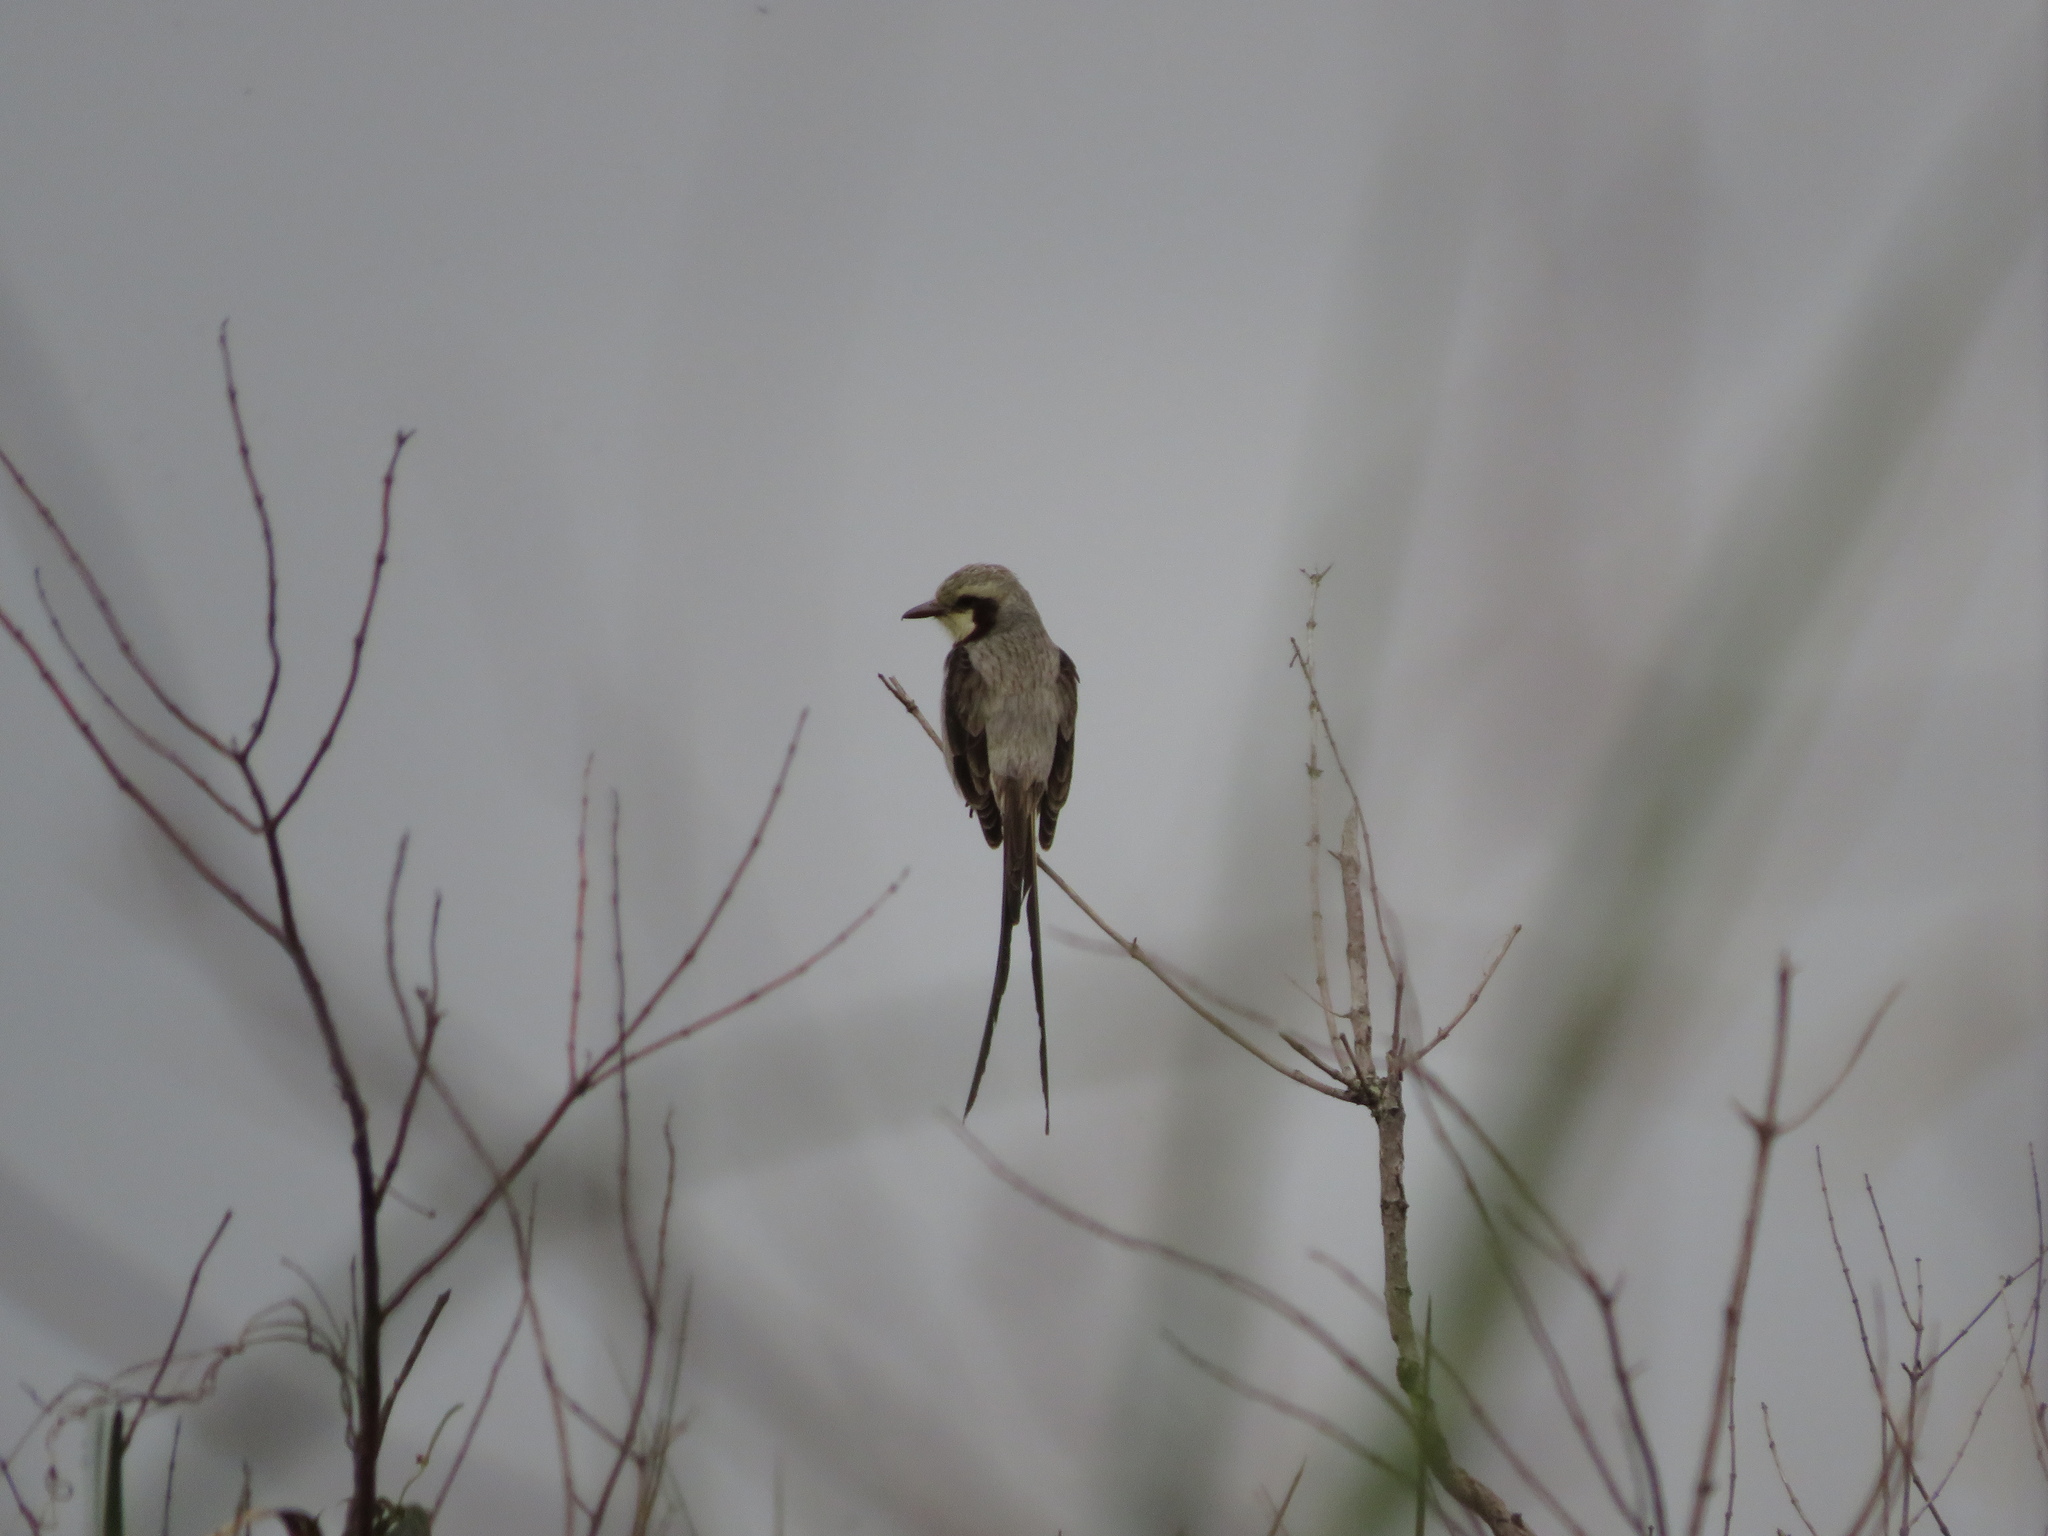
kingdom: Animalia
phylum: Chordata
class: Aves
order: Passeriformes
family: Tyrannidae
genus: Gubernetes
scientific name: Gubernetes yetapa
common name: Streamer-tailed tyrant
